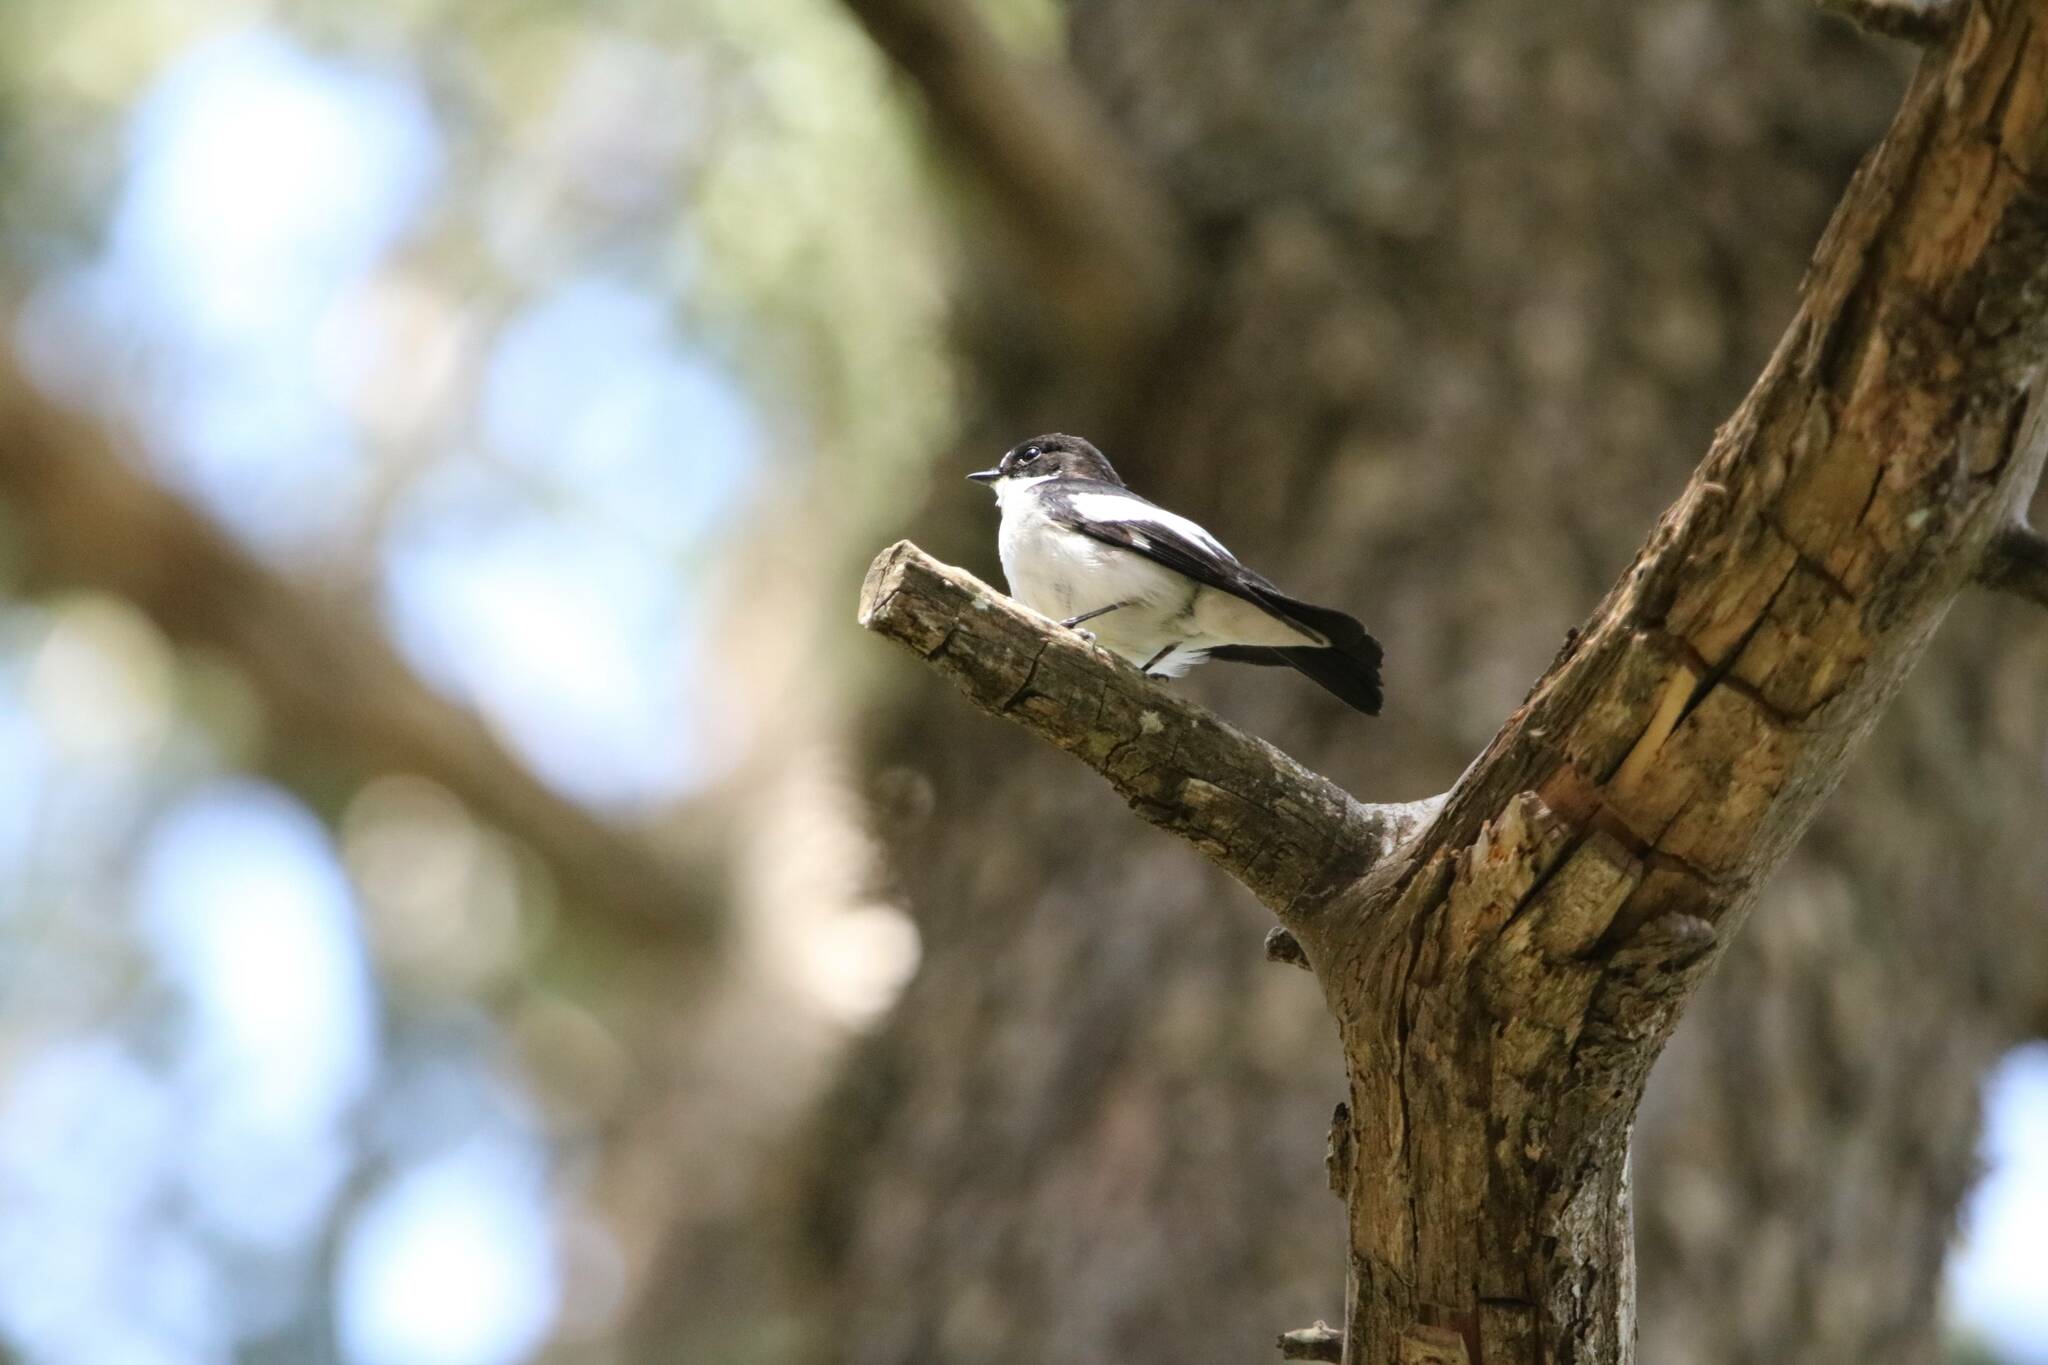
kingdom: Animalia
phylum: Chordata
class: Aves
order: Passeriformes
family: Muscicapidae
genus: Ficedula
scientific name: Ficedula speculigera
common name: Atlas pied flycatcher
